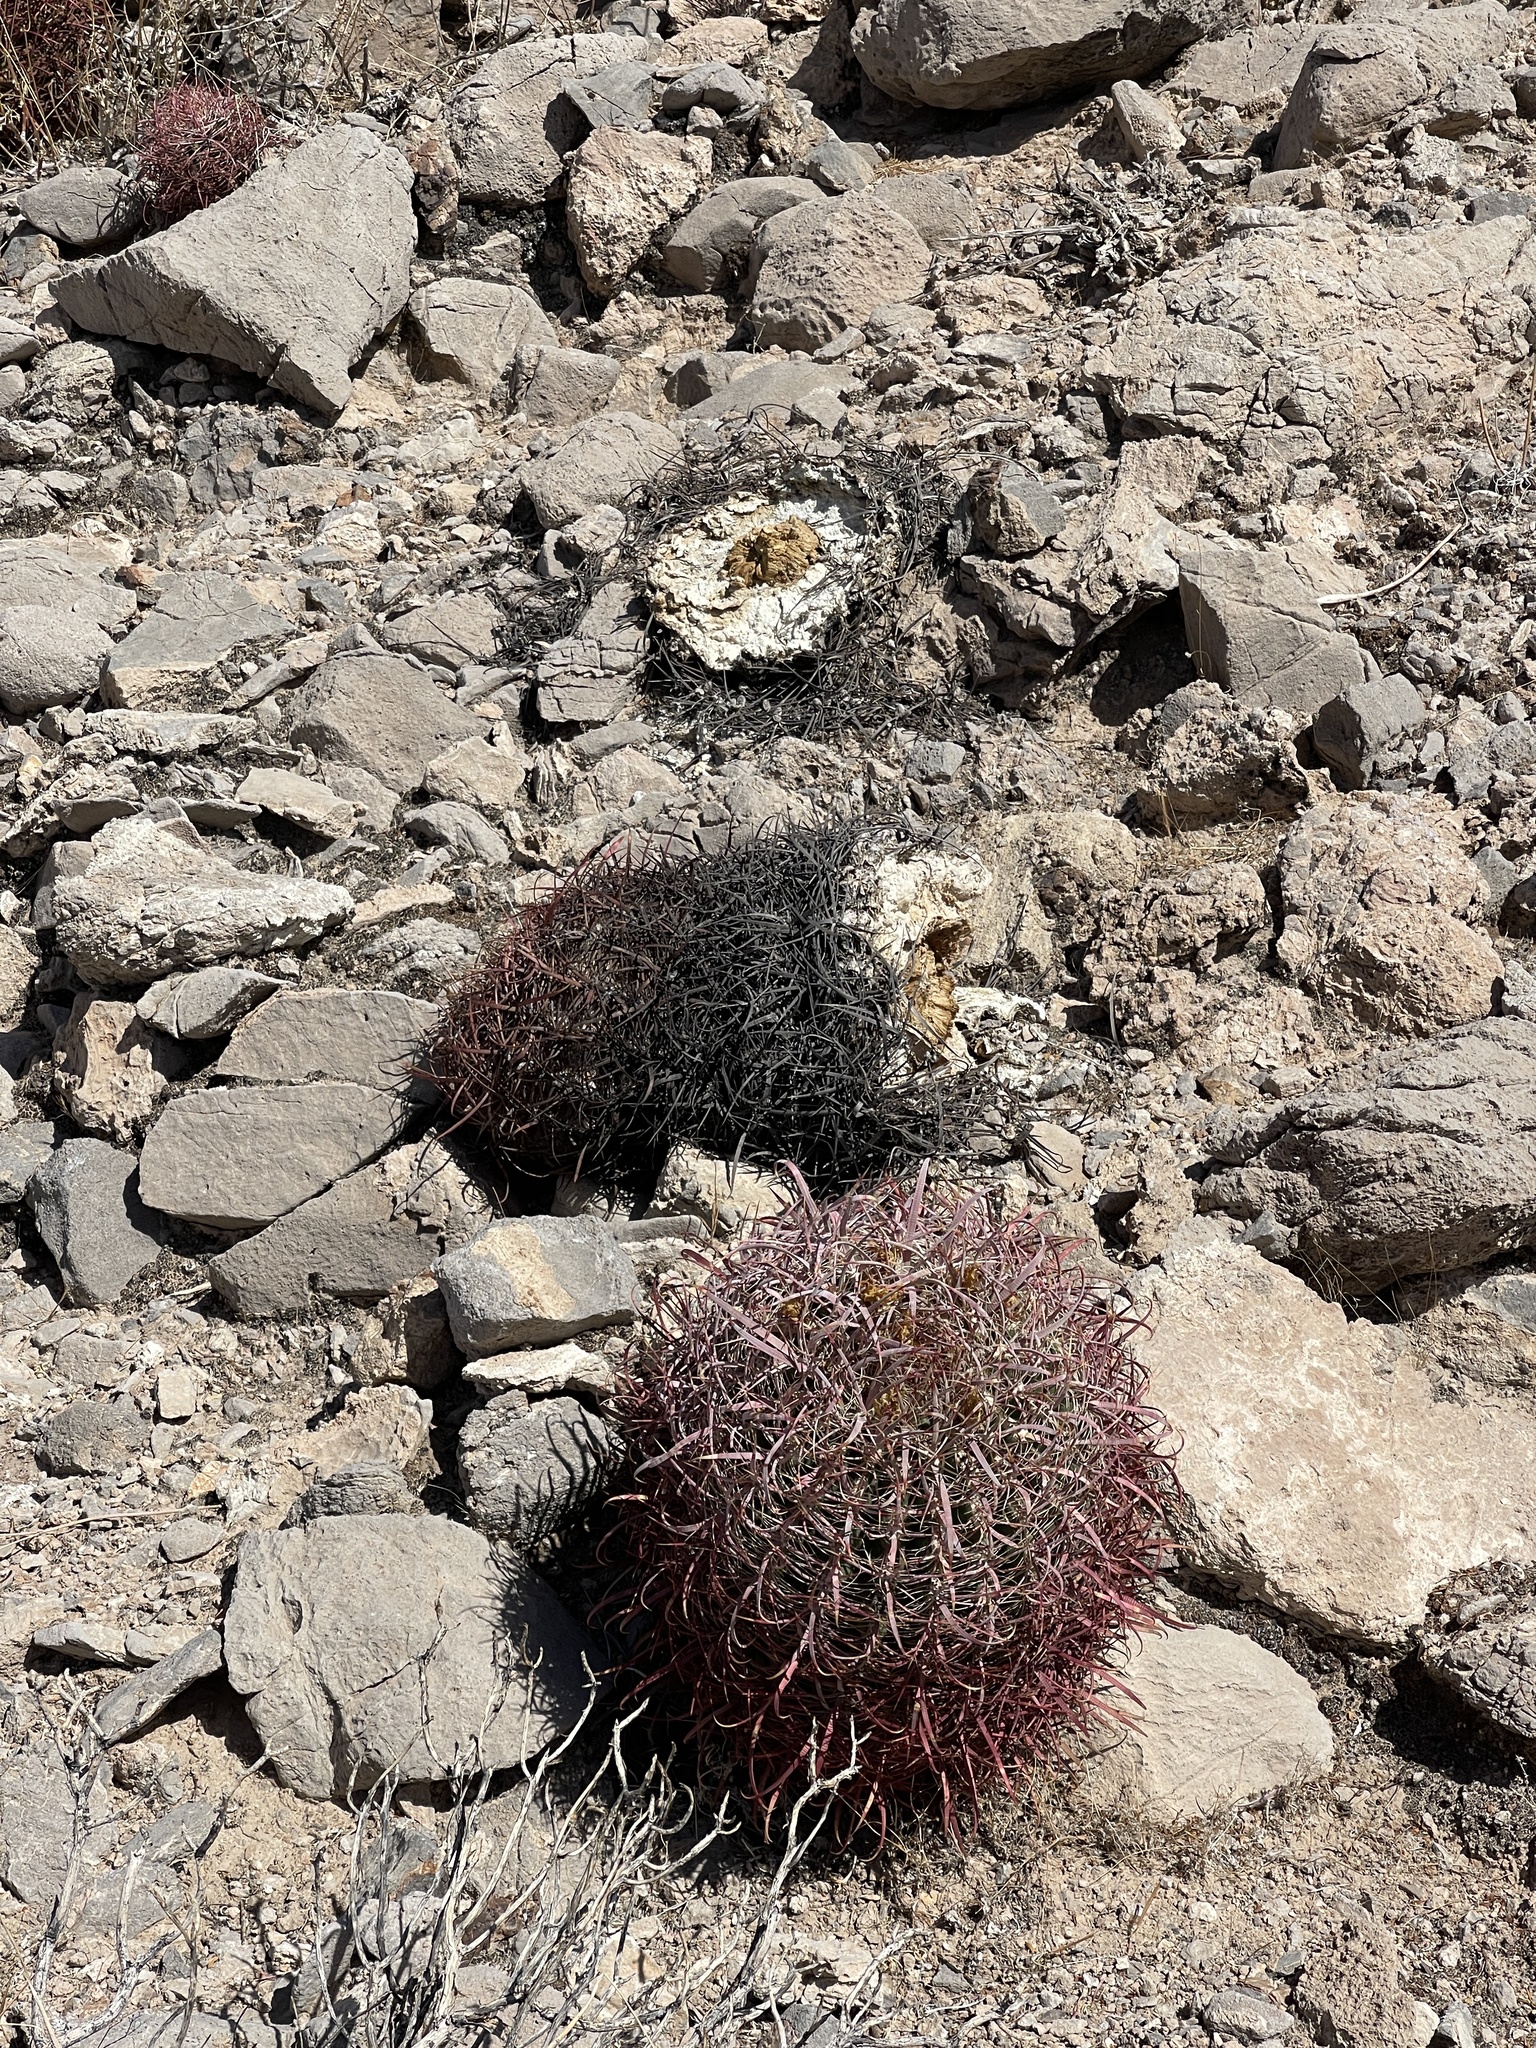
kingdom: Plantae
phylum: Tracheophyta
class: Magnoliopsida
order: Caryophyllales
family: Cactaceae
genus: Ferocactus
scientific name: Ferocactus cylindraceus
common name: California barrel cactus
